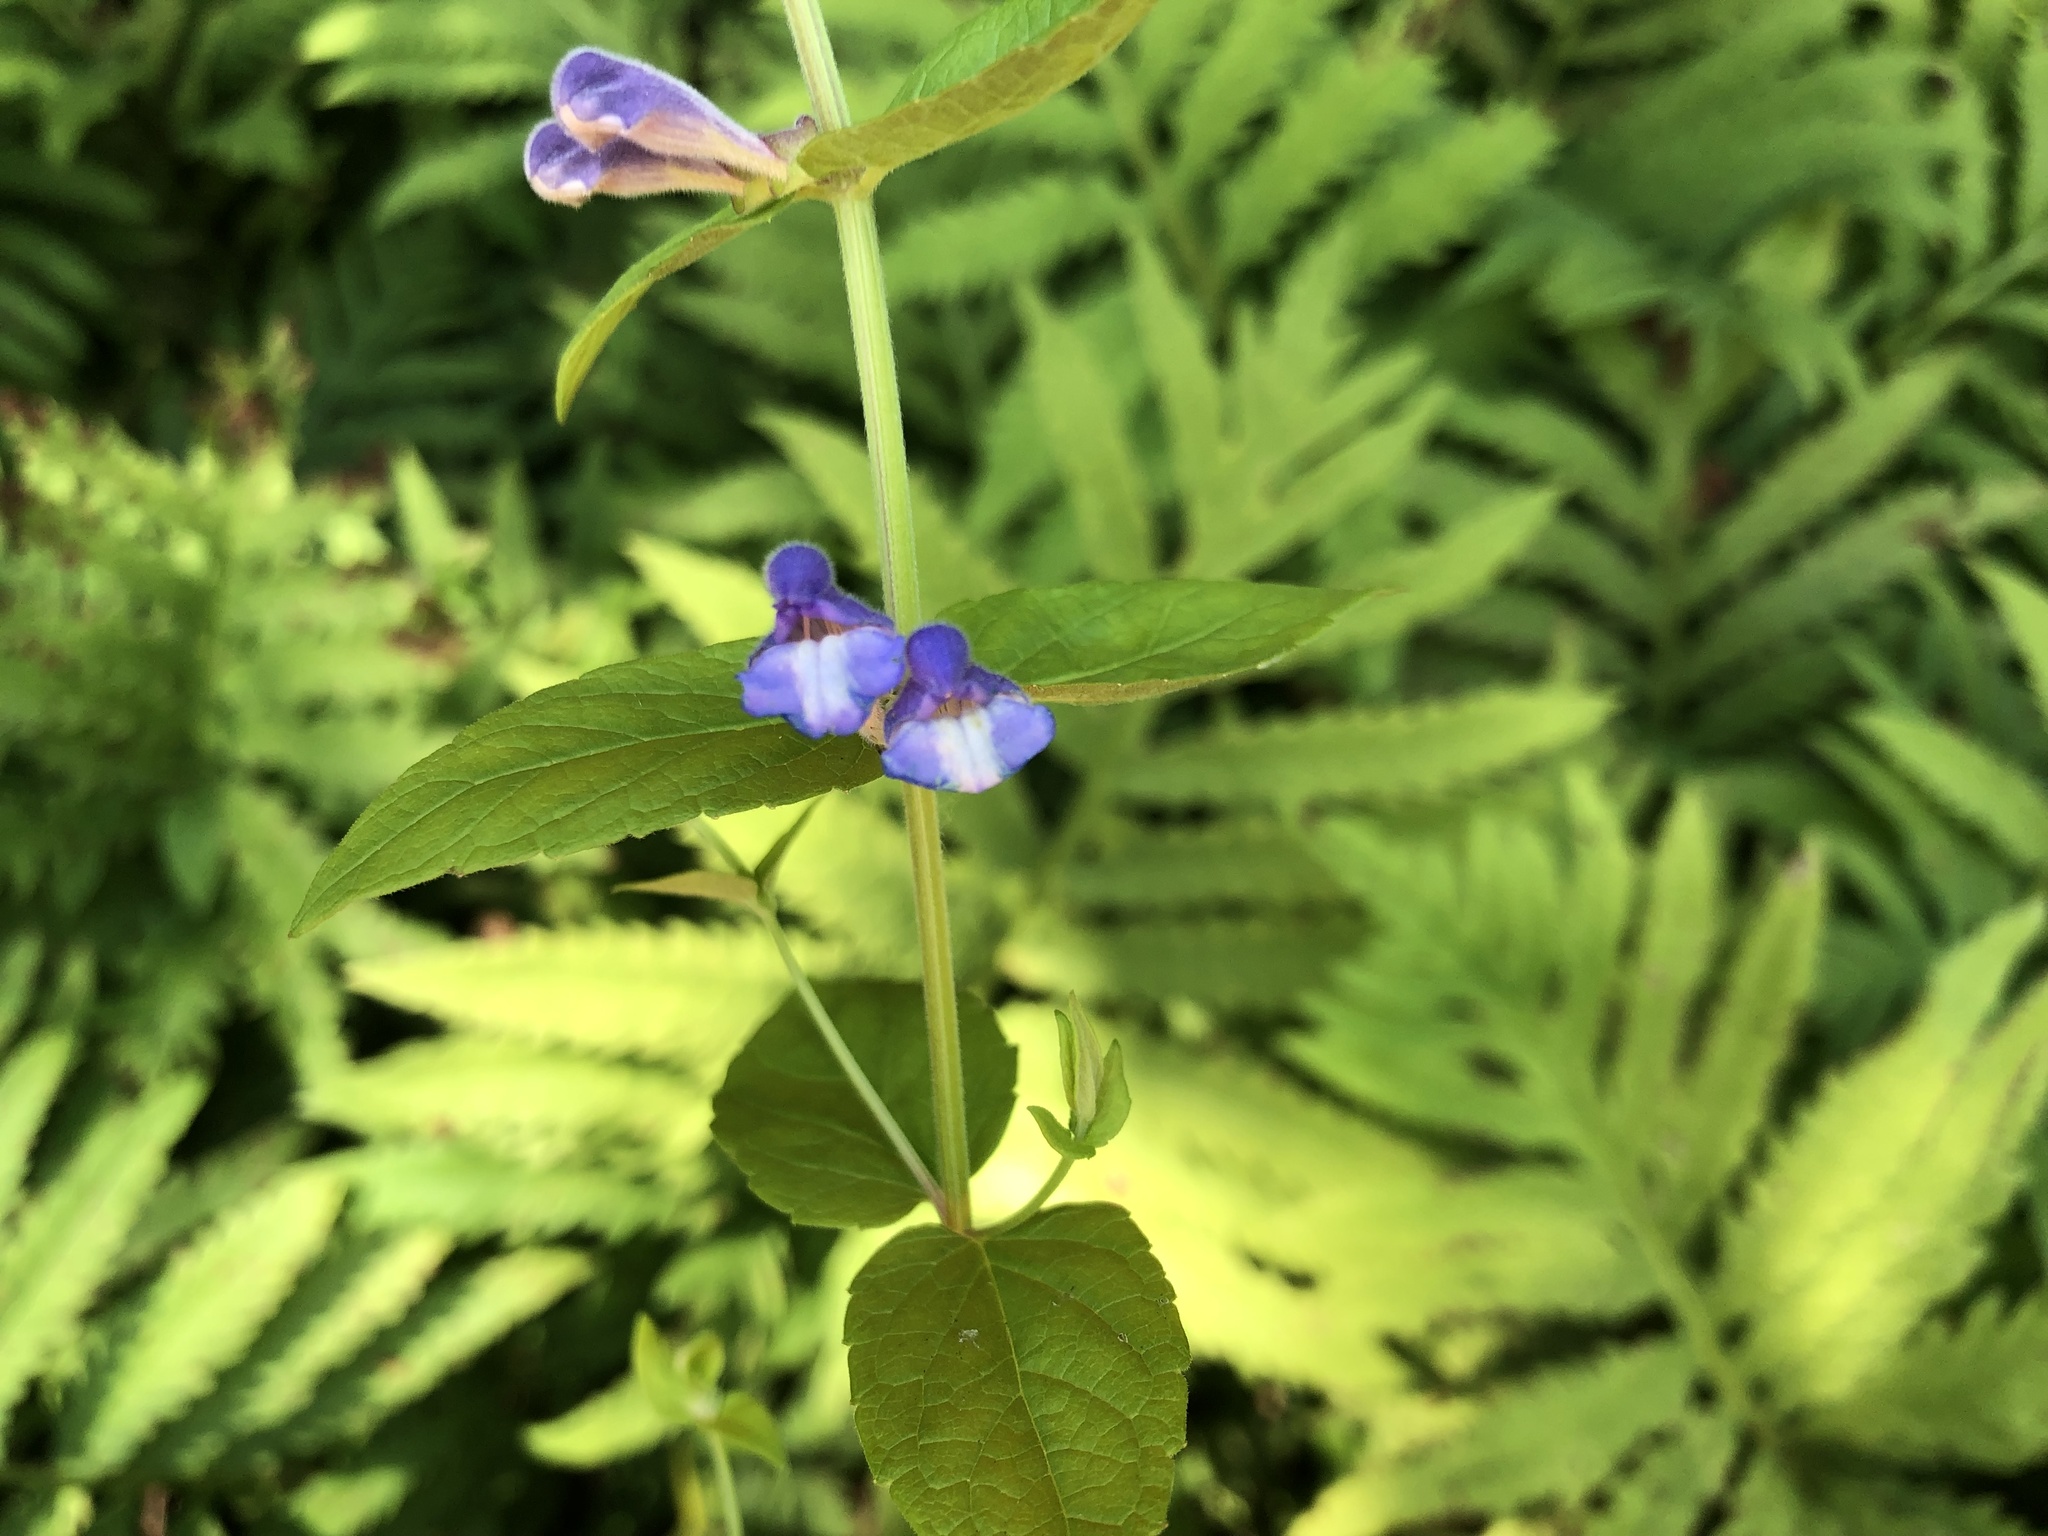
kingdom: Plantae
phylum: Tracheophyta
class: Magnoliopsida
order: Lamiales
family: Lamiaceae
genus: Scutellaria
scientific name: Scutellaria galericulata
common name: Skullcap
